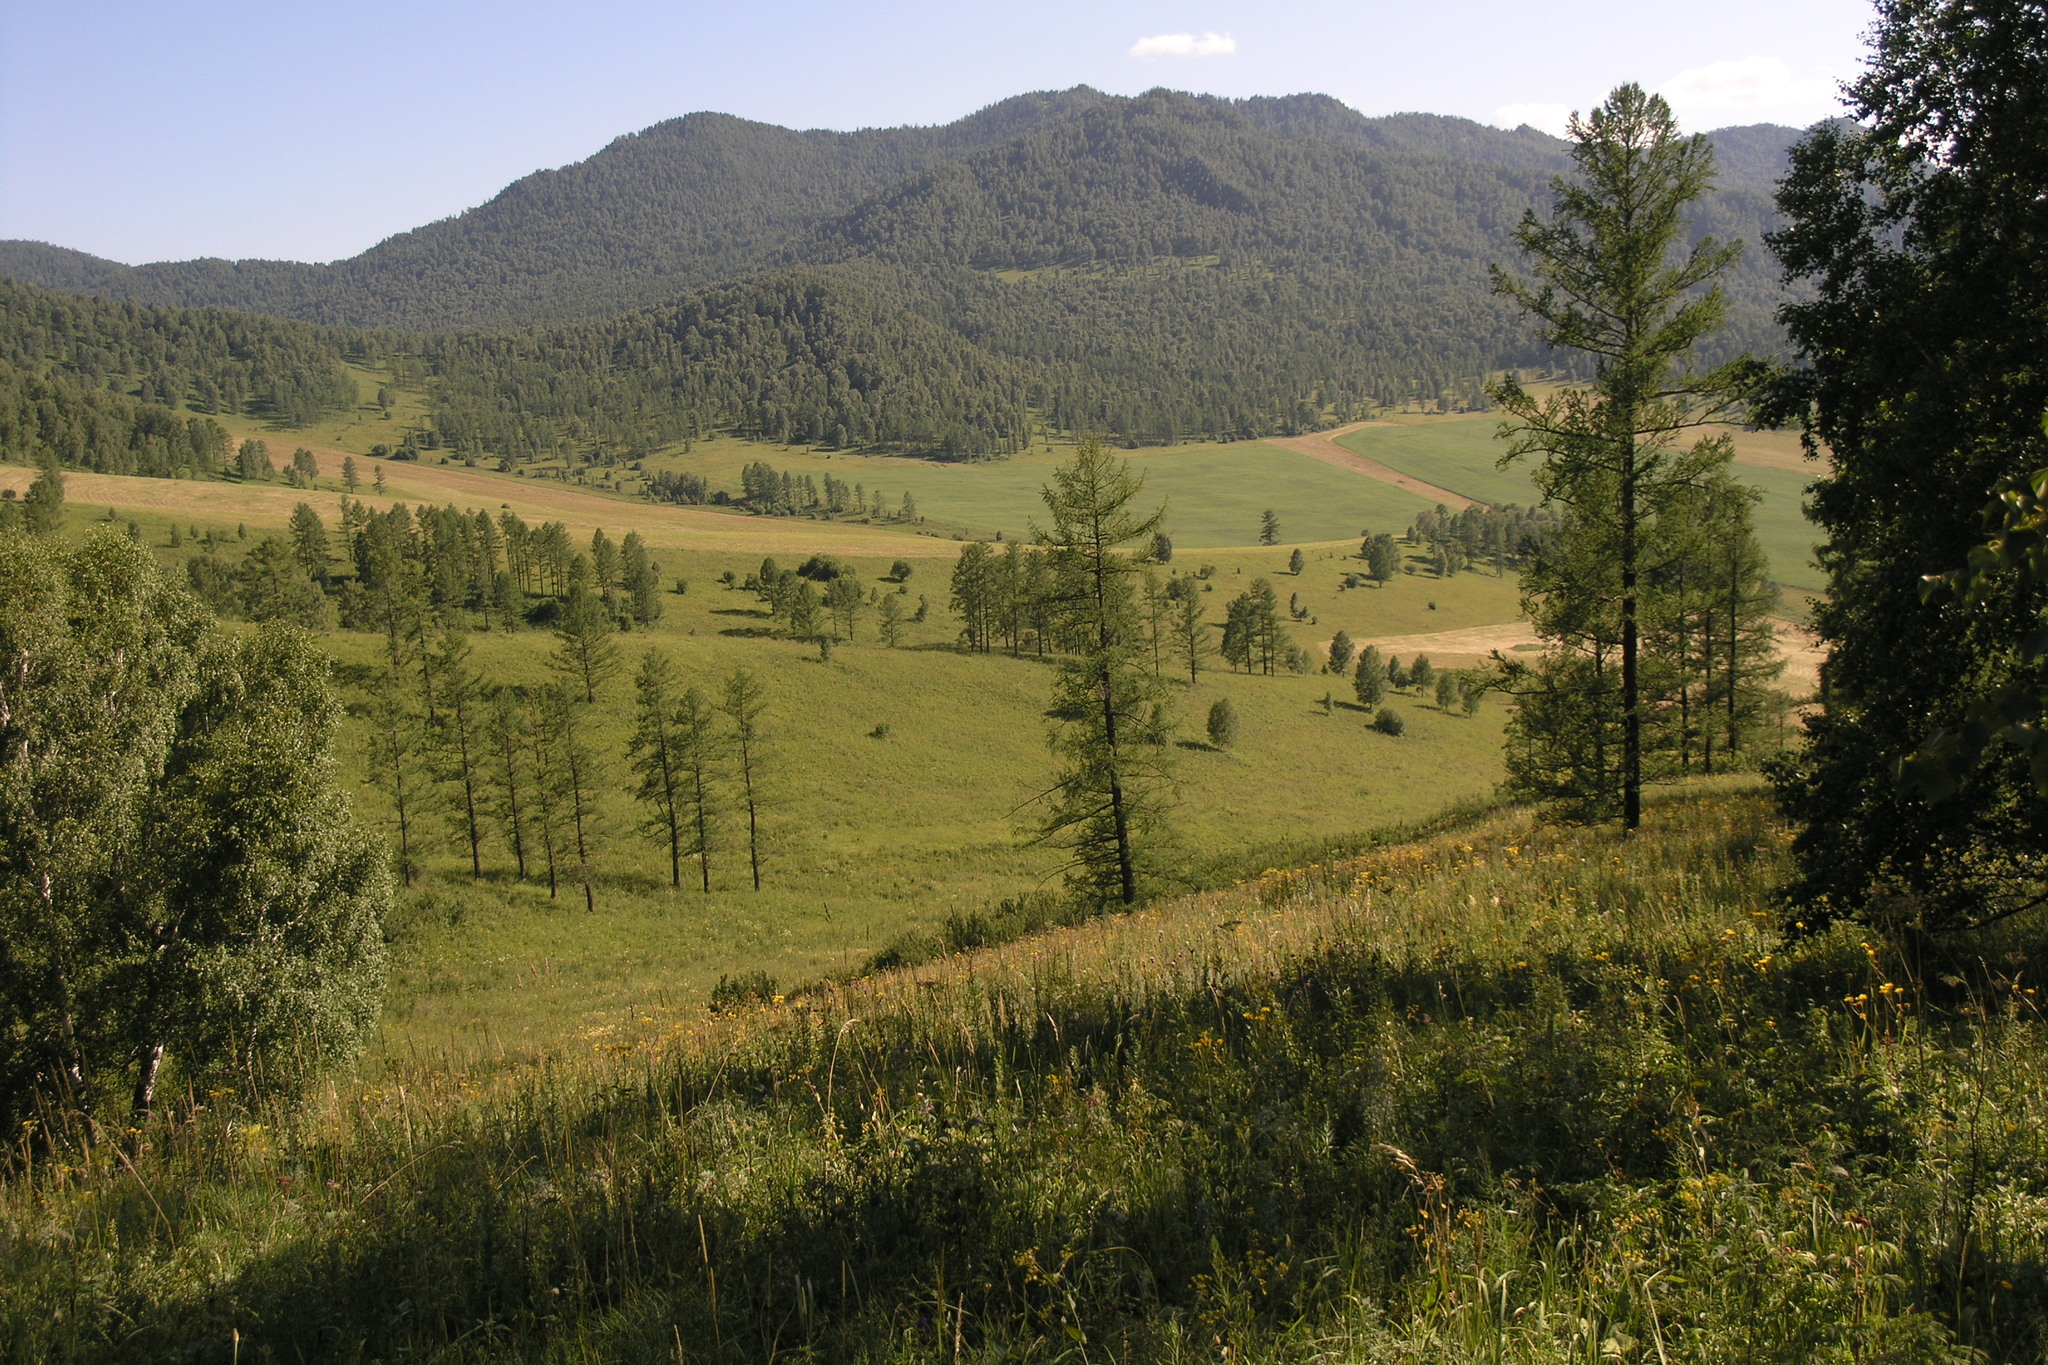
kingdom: Plantae
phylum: Tracheophyta
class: Pinopsida
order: Pinales
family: Pinaceae
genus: Larix
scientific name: Larix sibirica
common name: Siberian larch
